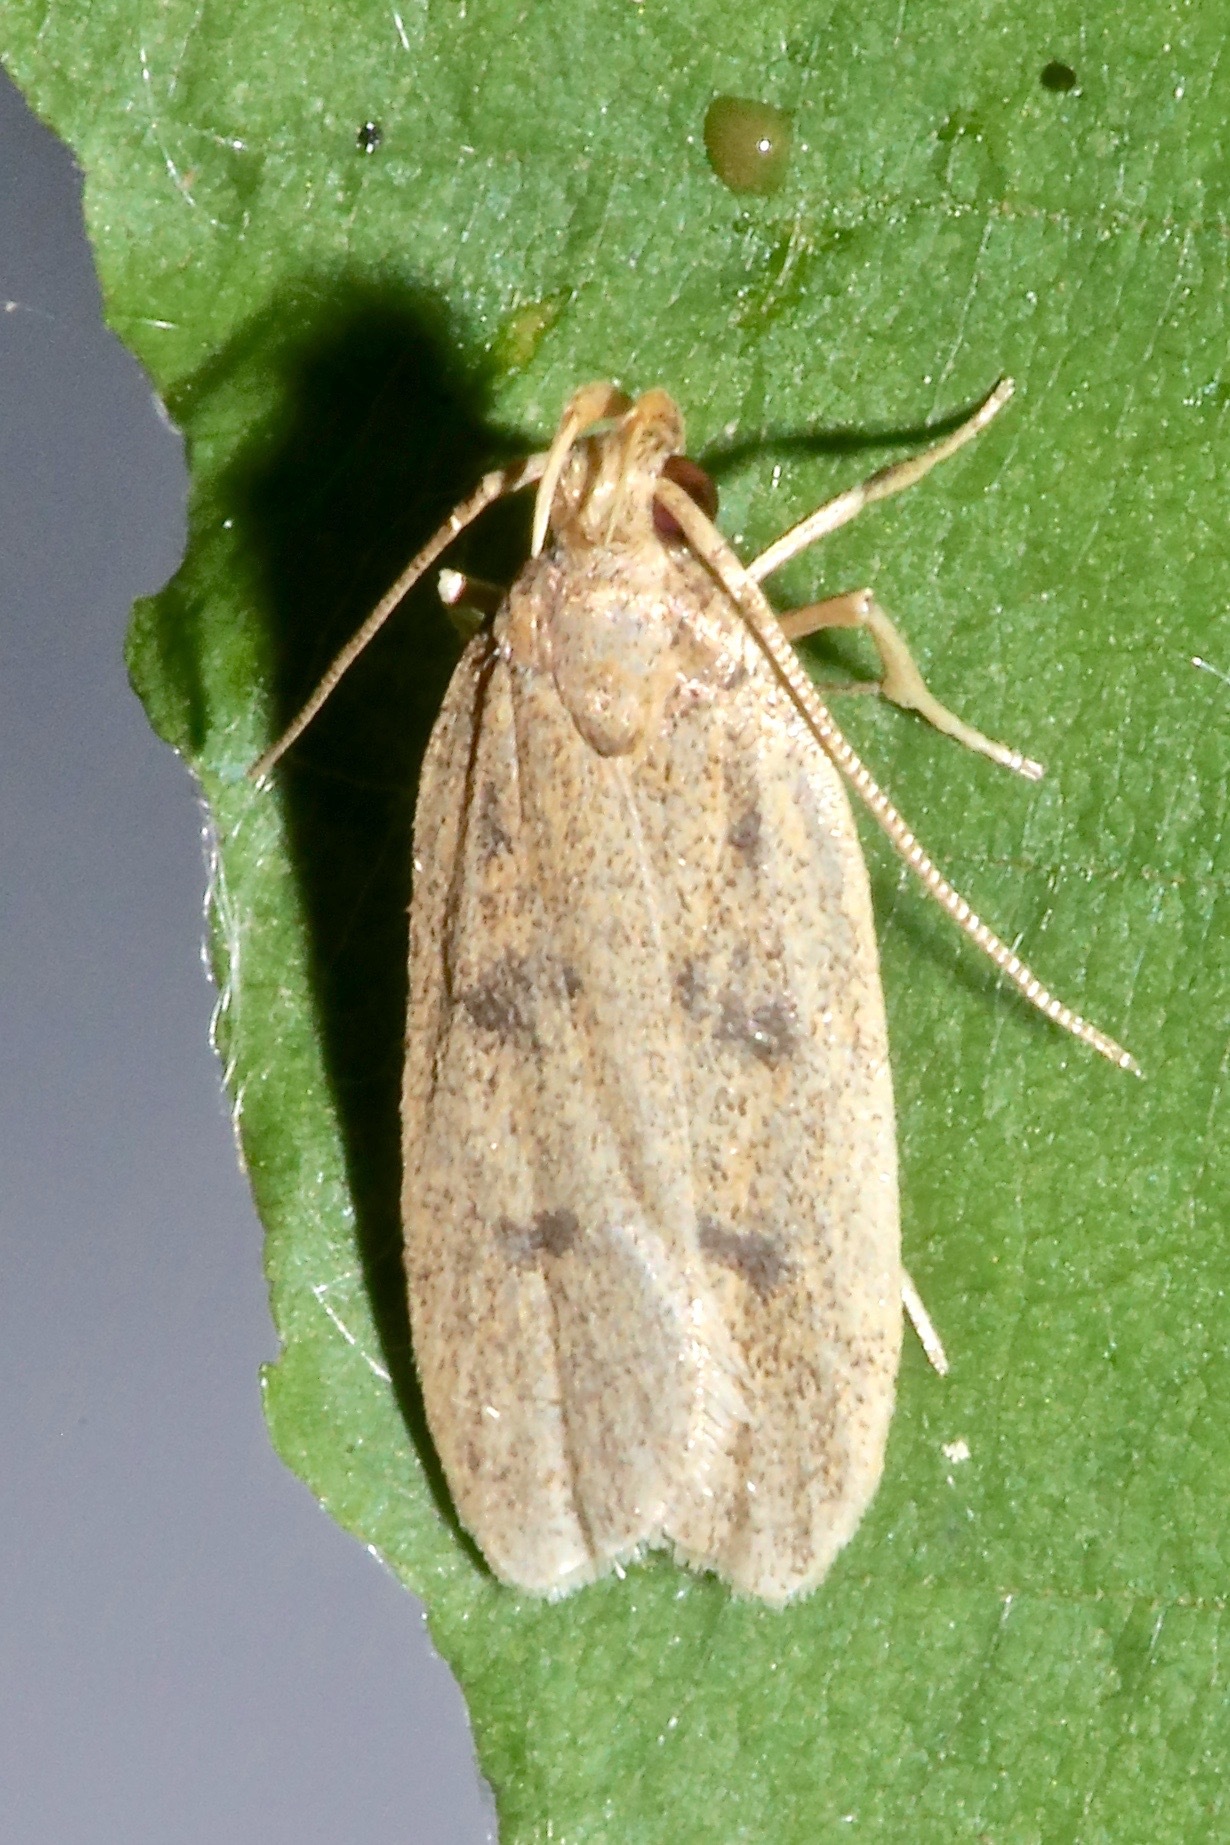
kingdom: Animalia
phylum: Arthropoda
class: Insecta
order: Lepidoptera
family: Autostichidae
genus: Glyphidocera
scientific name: Glyphidocera septentrionella
